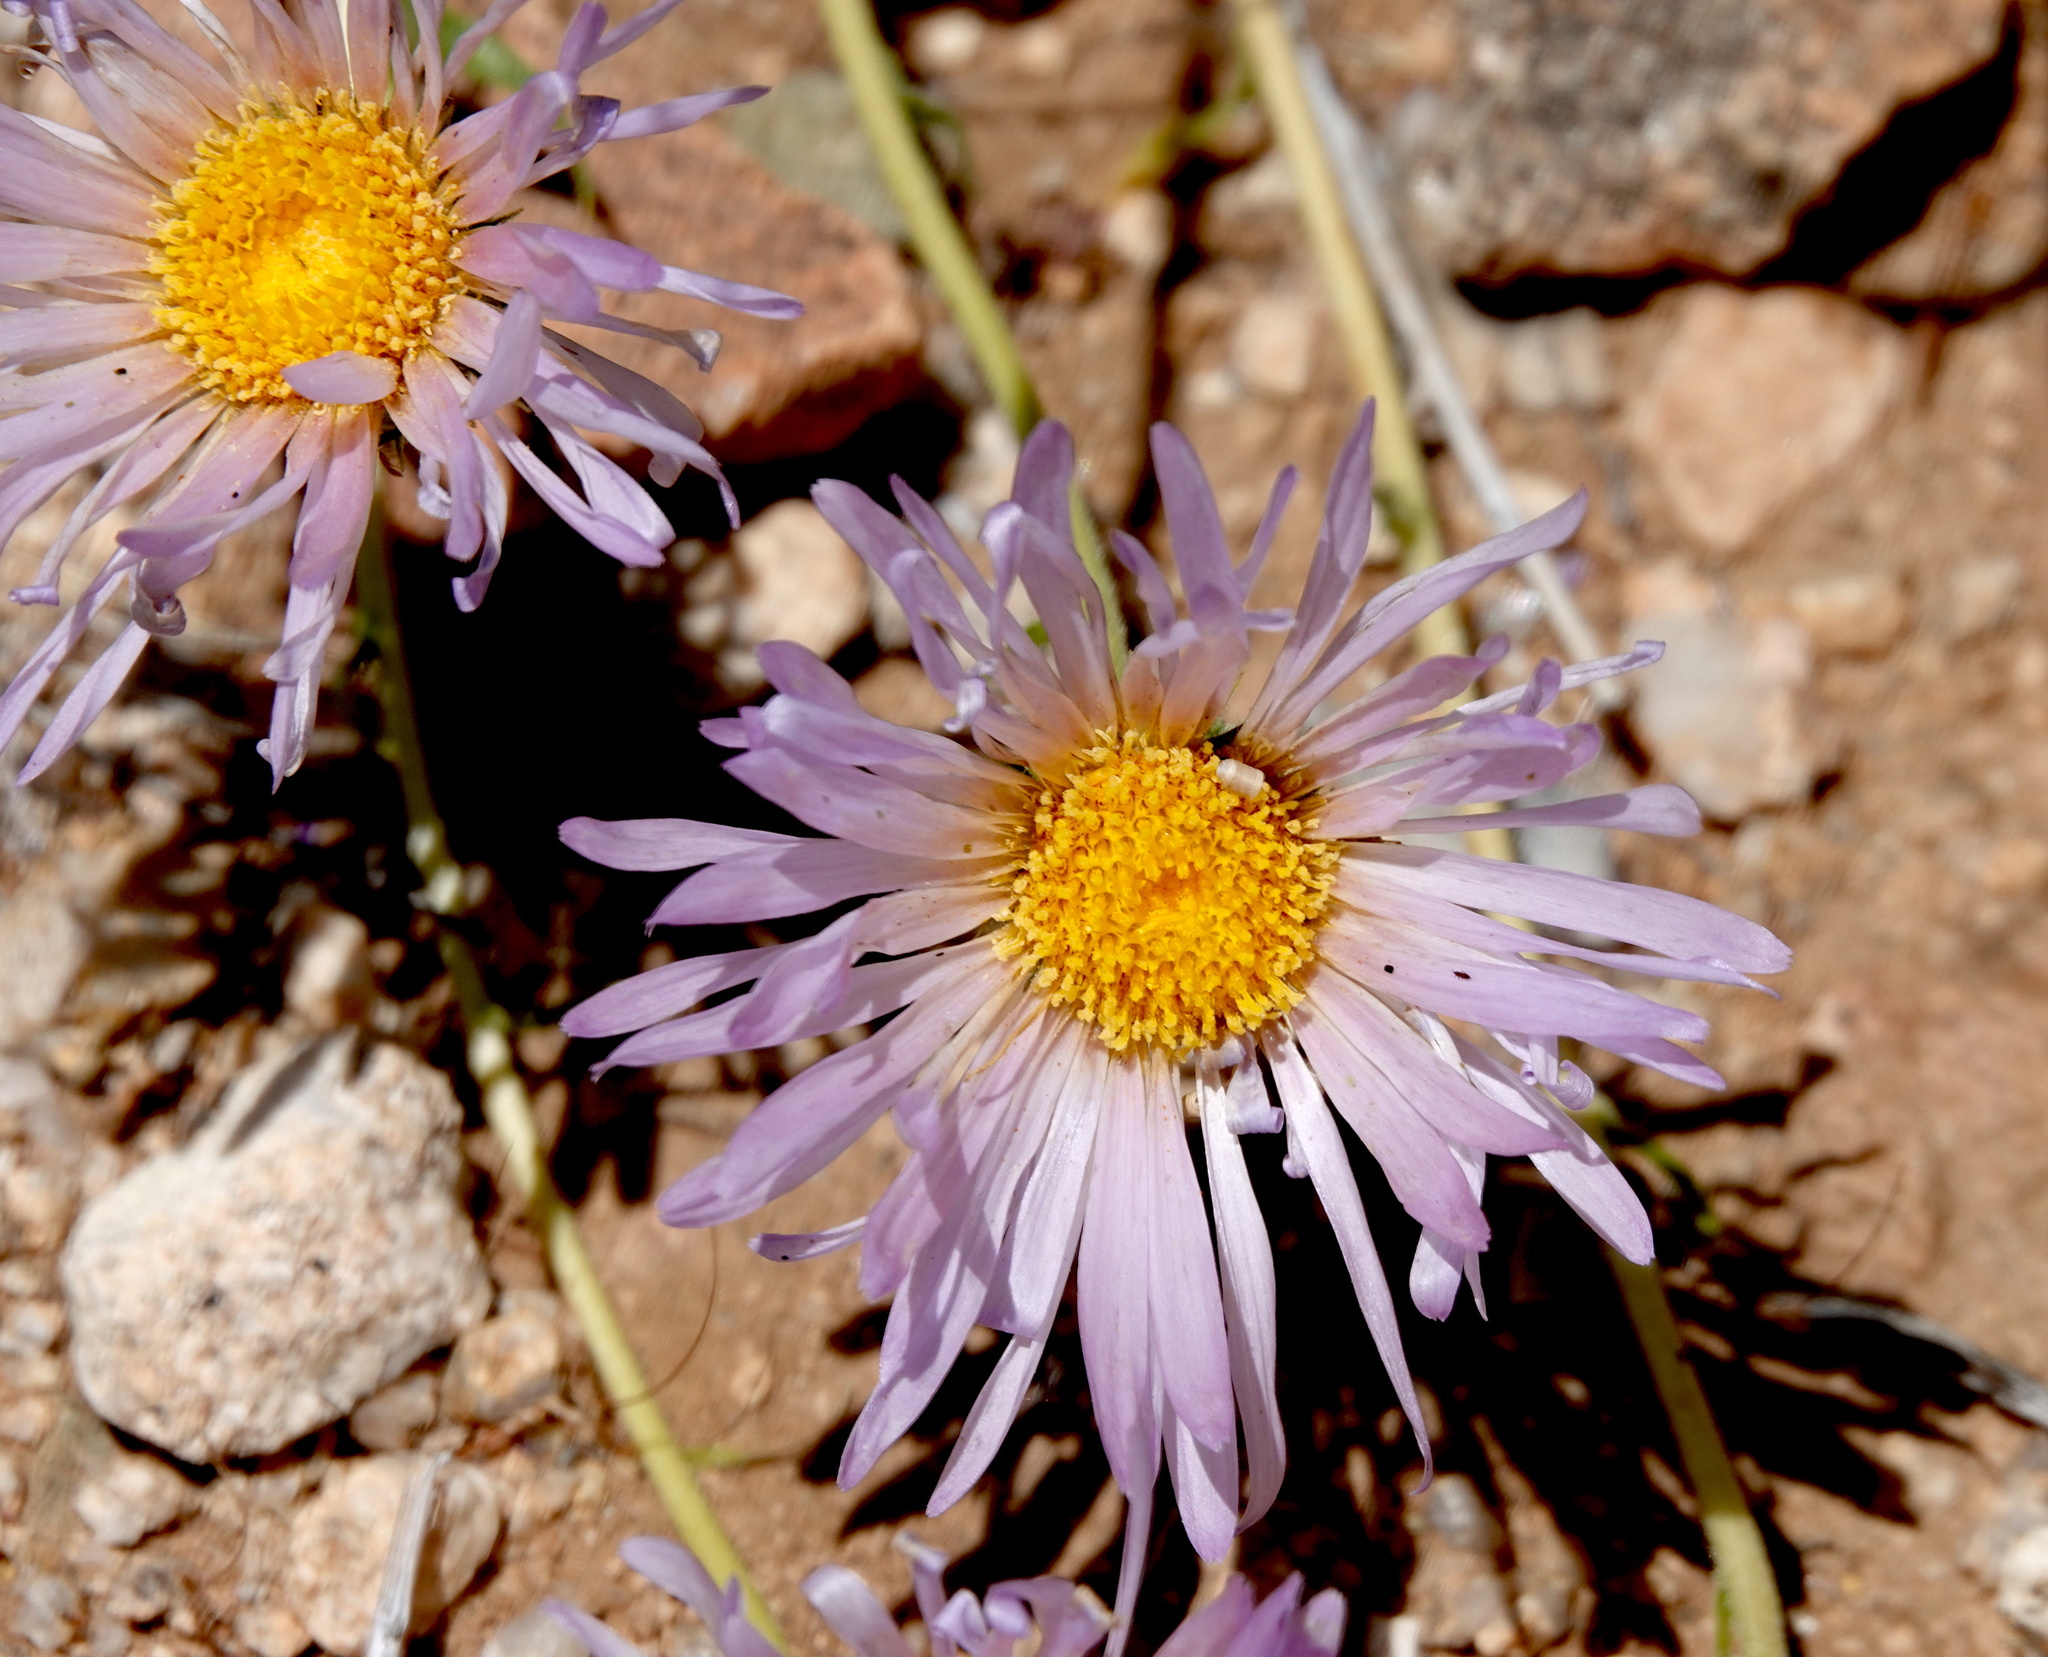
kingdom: Plantae
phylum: Tracheophyta
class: Magnoliopsida
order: Asterales
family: Asteraceae
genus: Xylorhiza
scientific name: Xylorhiza tortifolia
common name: Hurt-leaf woody-aster
